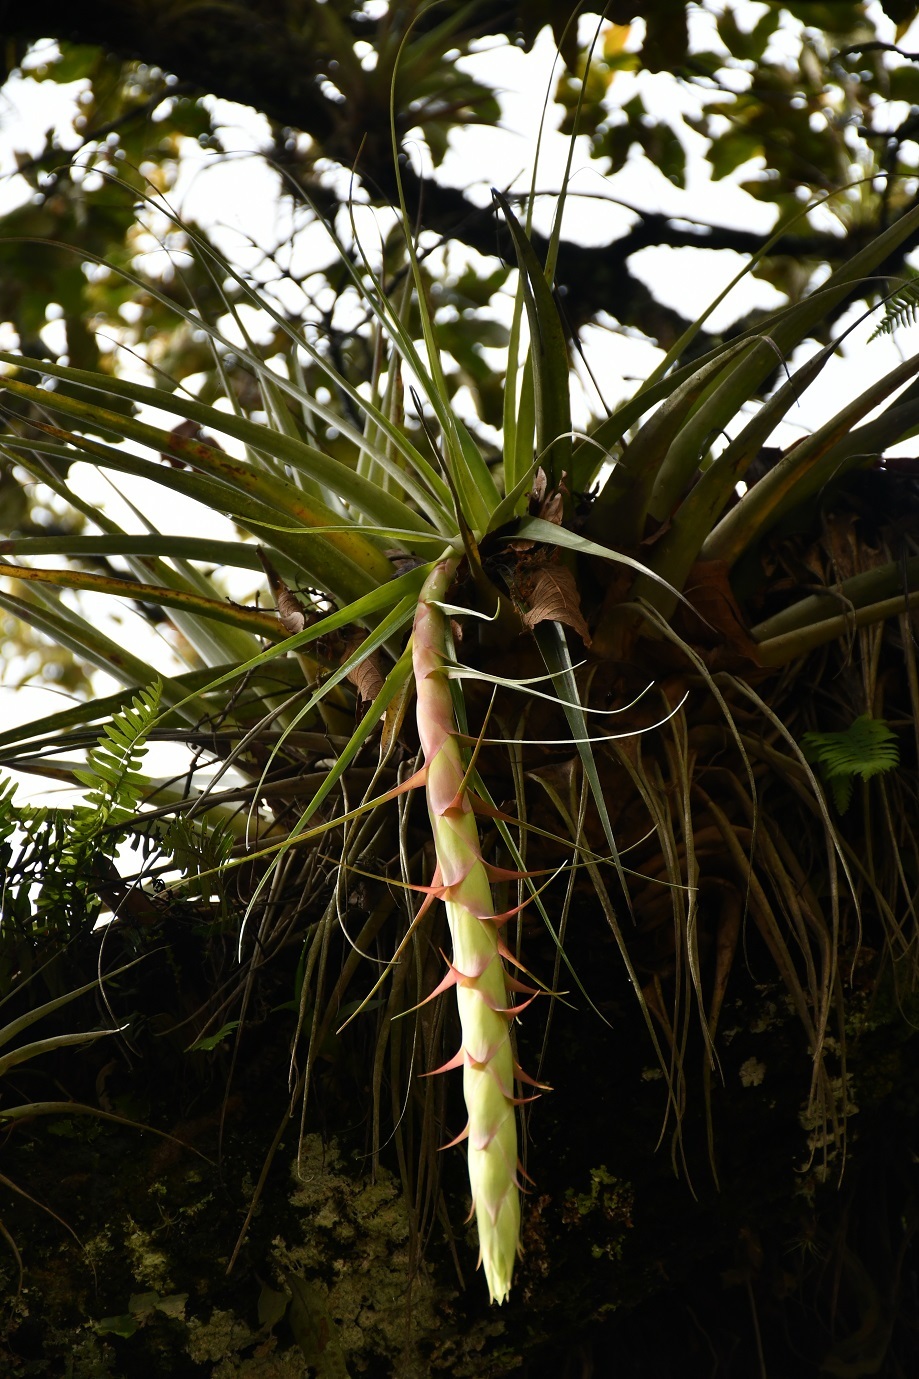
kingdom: Plantae
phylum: Tracheophyta
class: Liliopsida
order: Poales
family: Bromeliaceae
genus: Tillandsia
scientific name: Tillandsia prodigiosa
